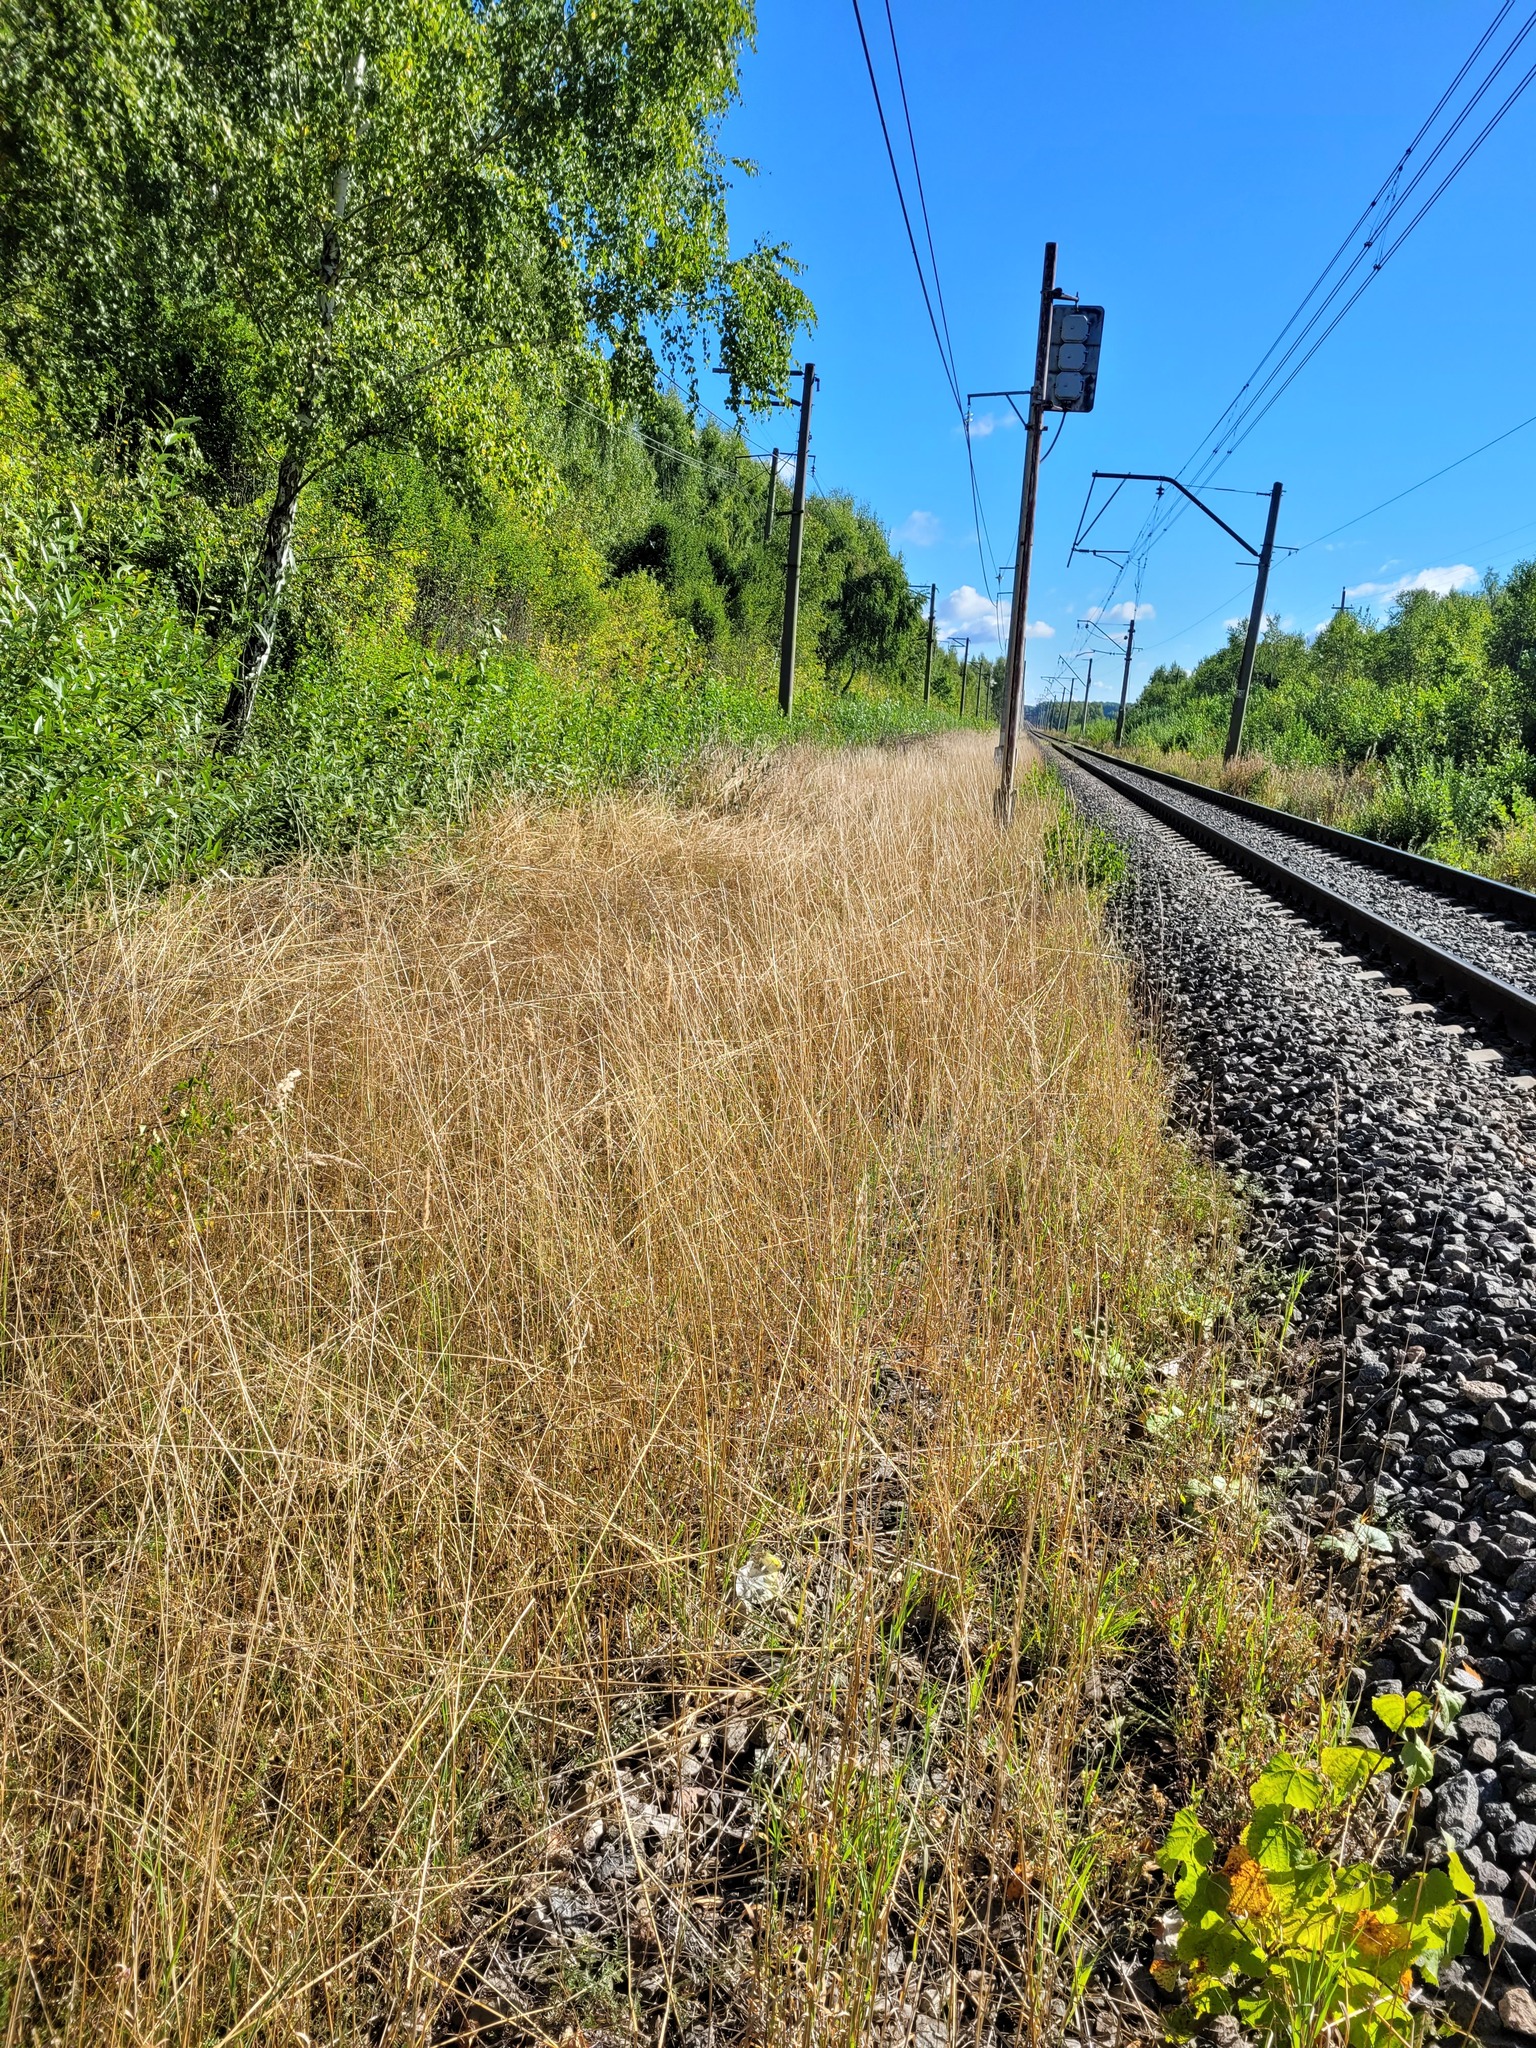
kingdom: Plantae
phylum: Tracheophyta
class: Liliopsida
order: Poales
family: Poaceae
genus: Arrhenatherum
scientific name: Arrhenatherum elatius
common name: Tall oatgrass
